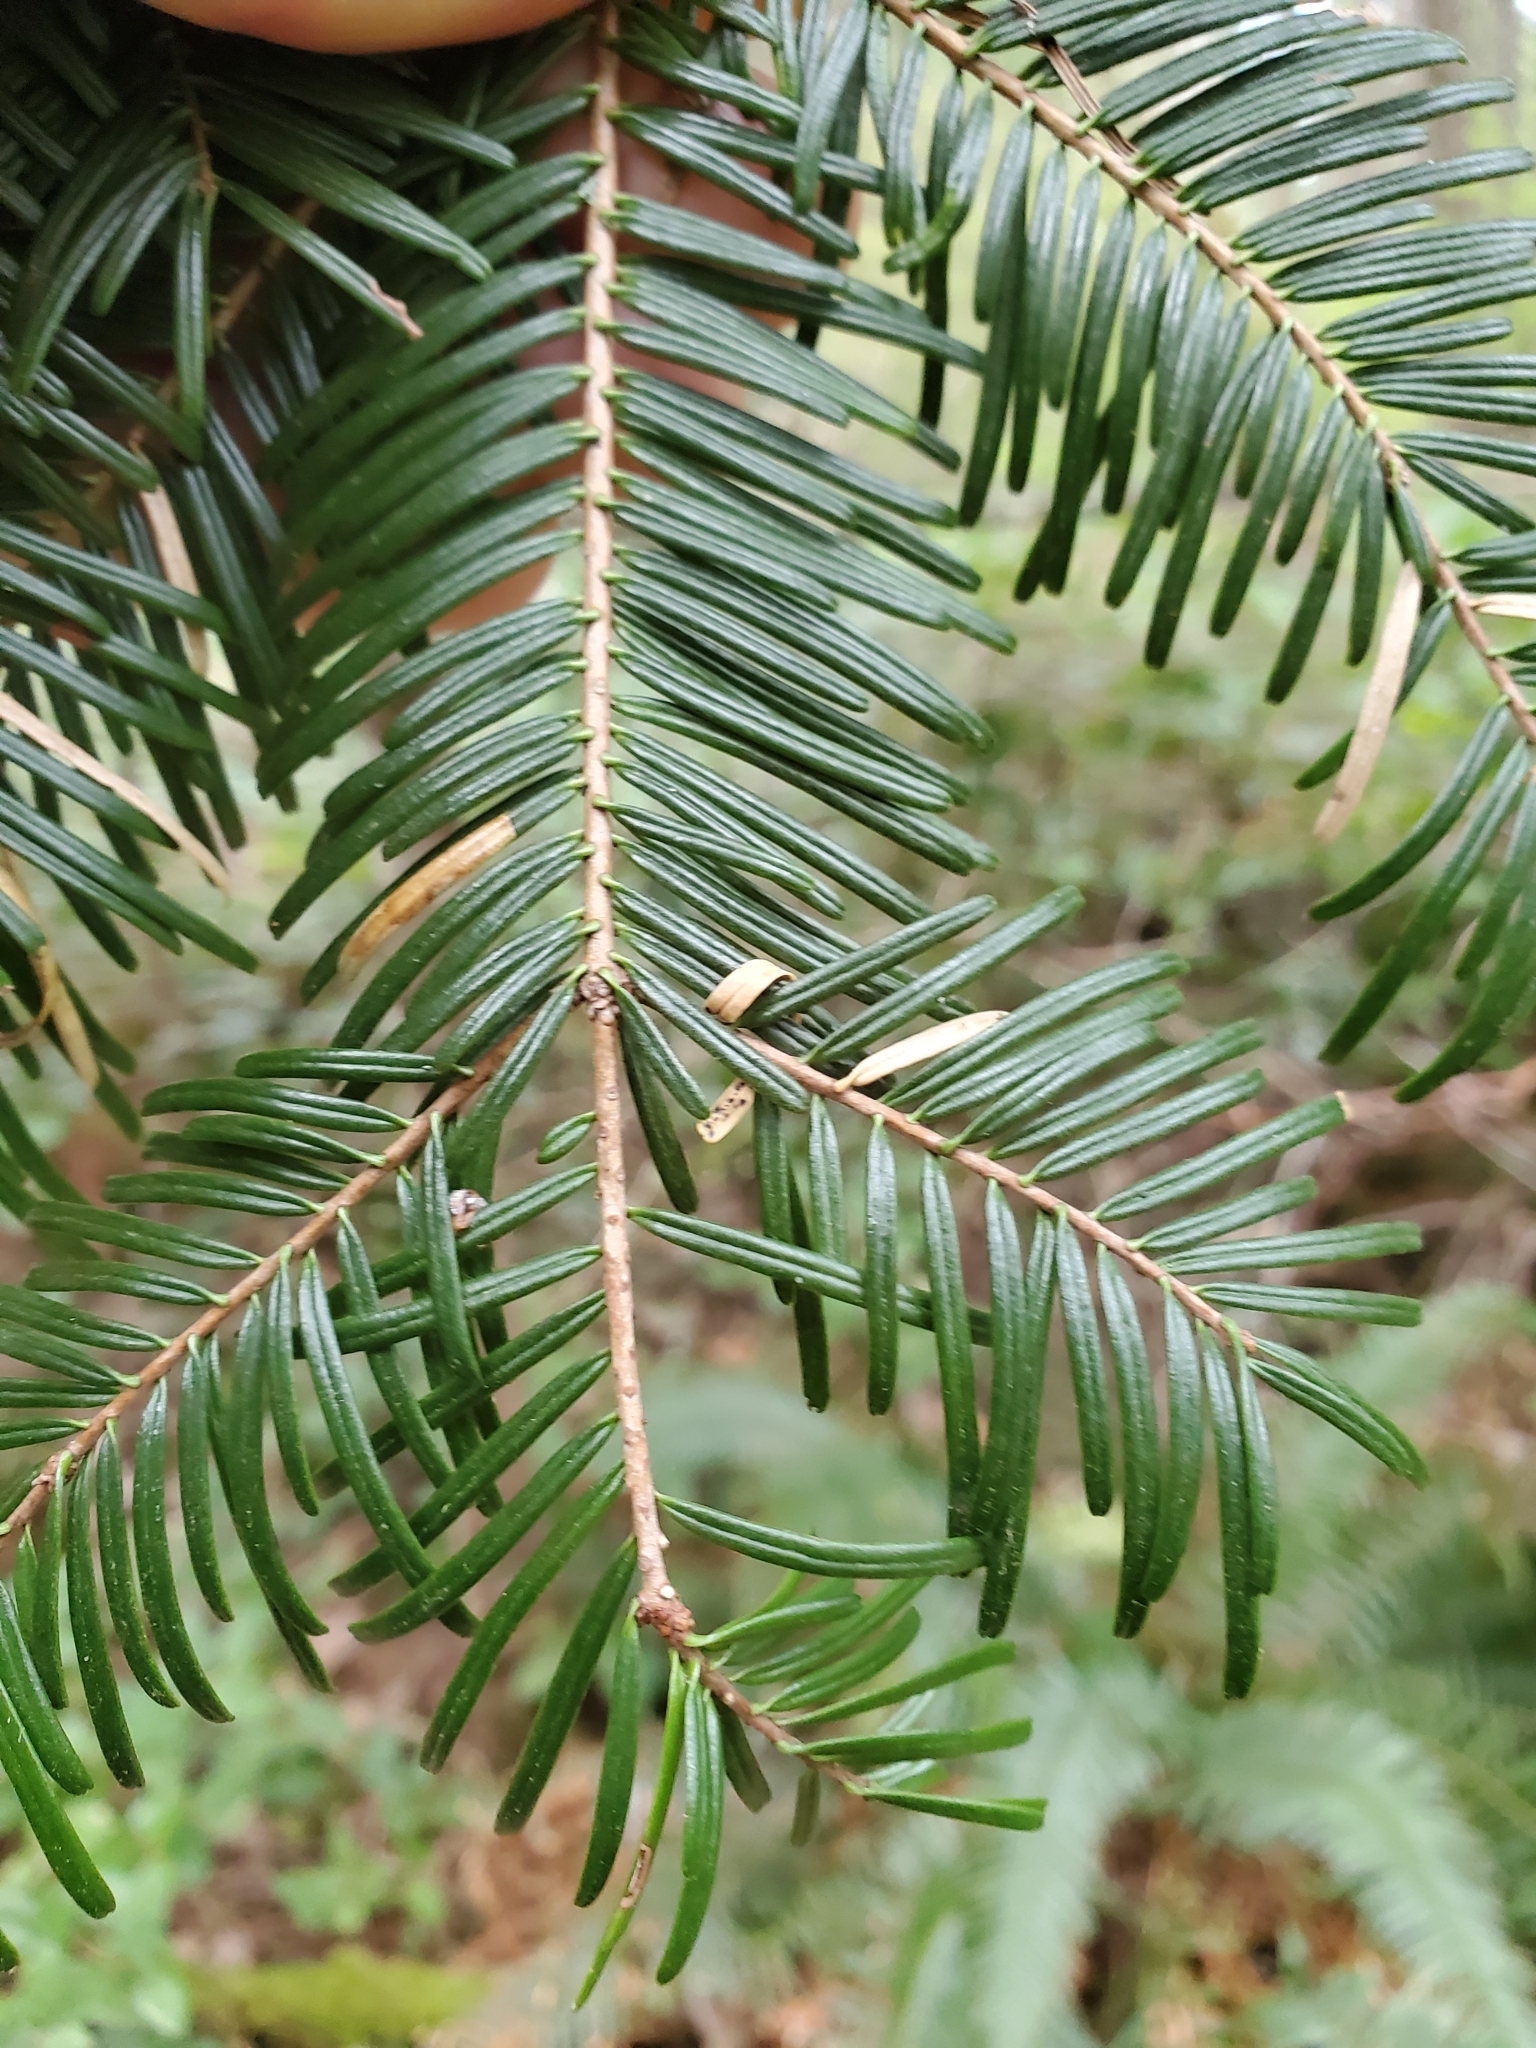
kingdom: Plantae
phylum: Tracheophyta
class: Pinopsida
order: Pinales
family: Pinaceae
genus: Abies
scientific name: Abies grandis
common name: Giant fir
